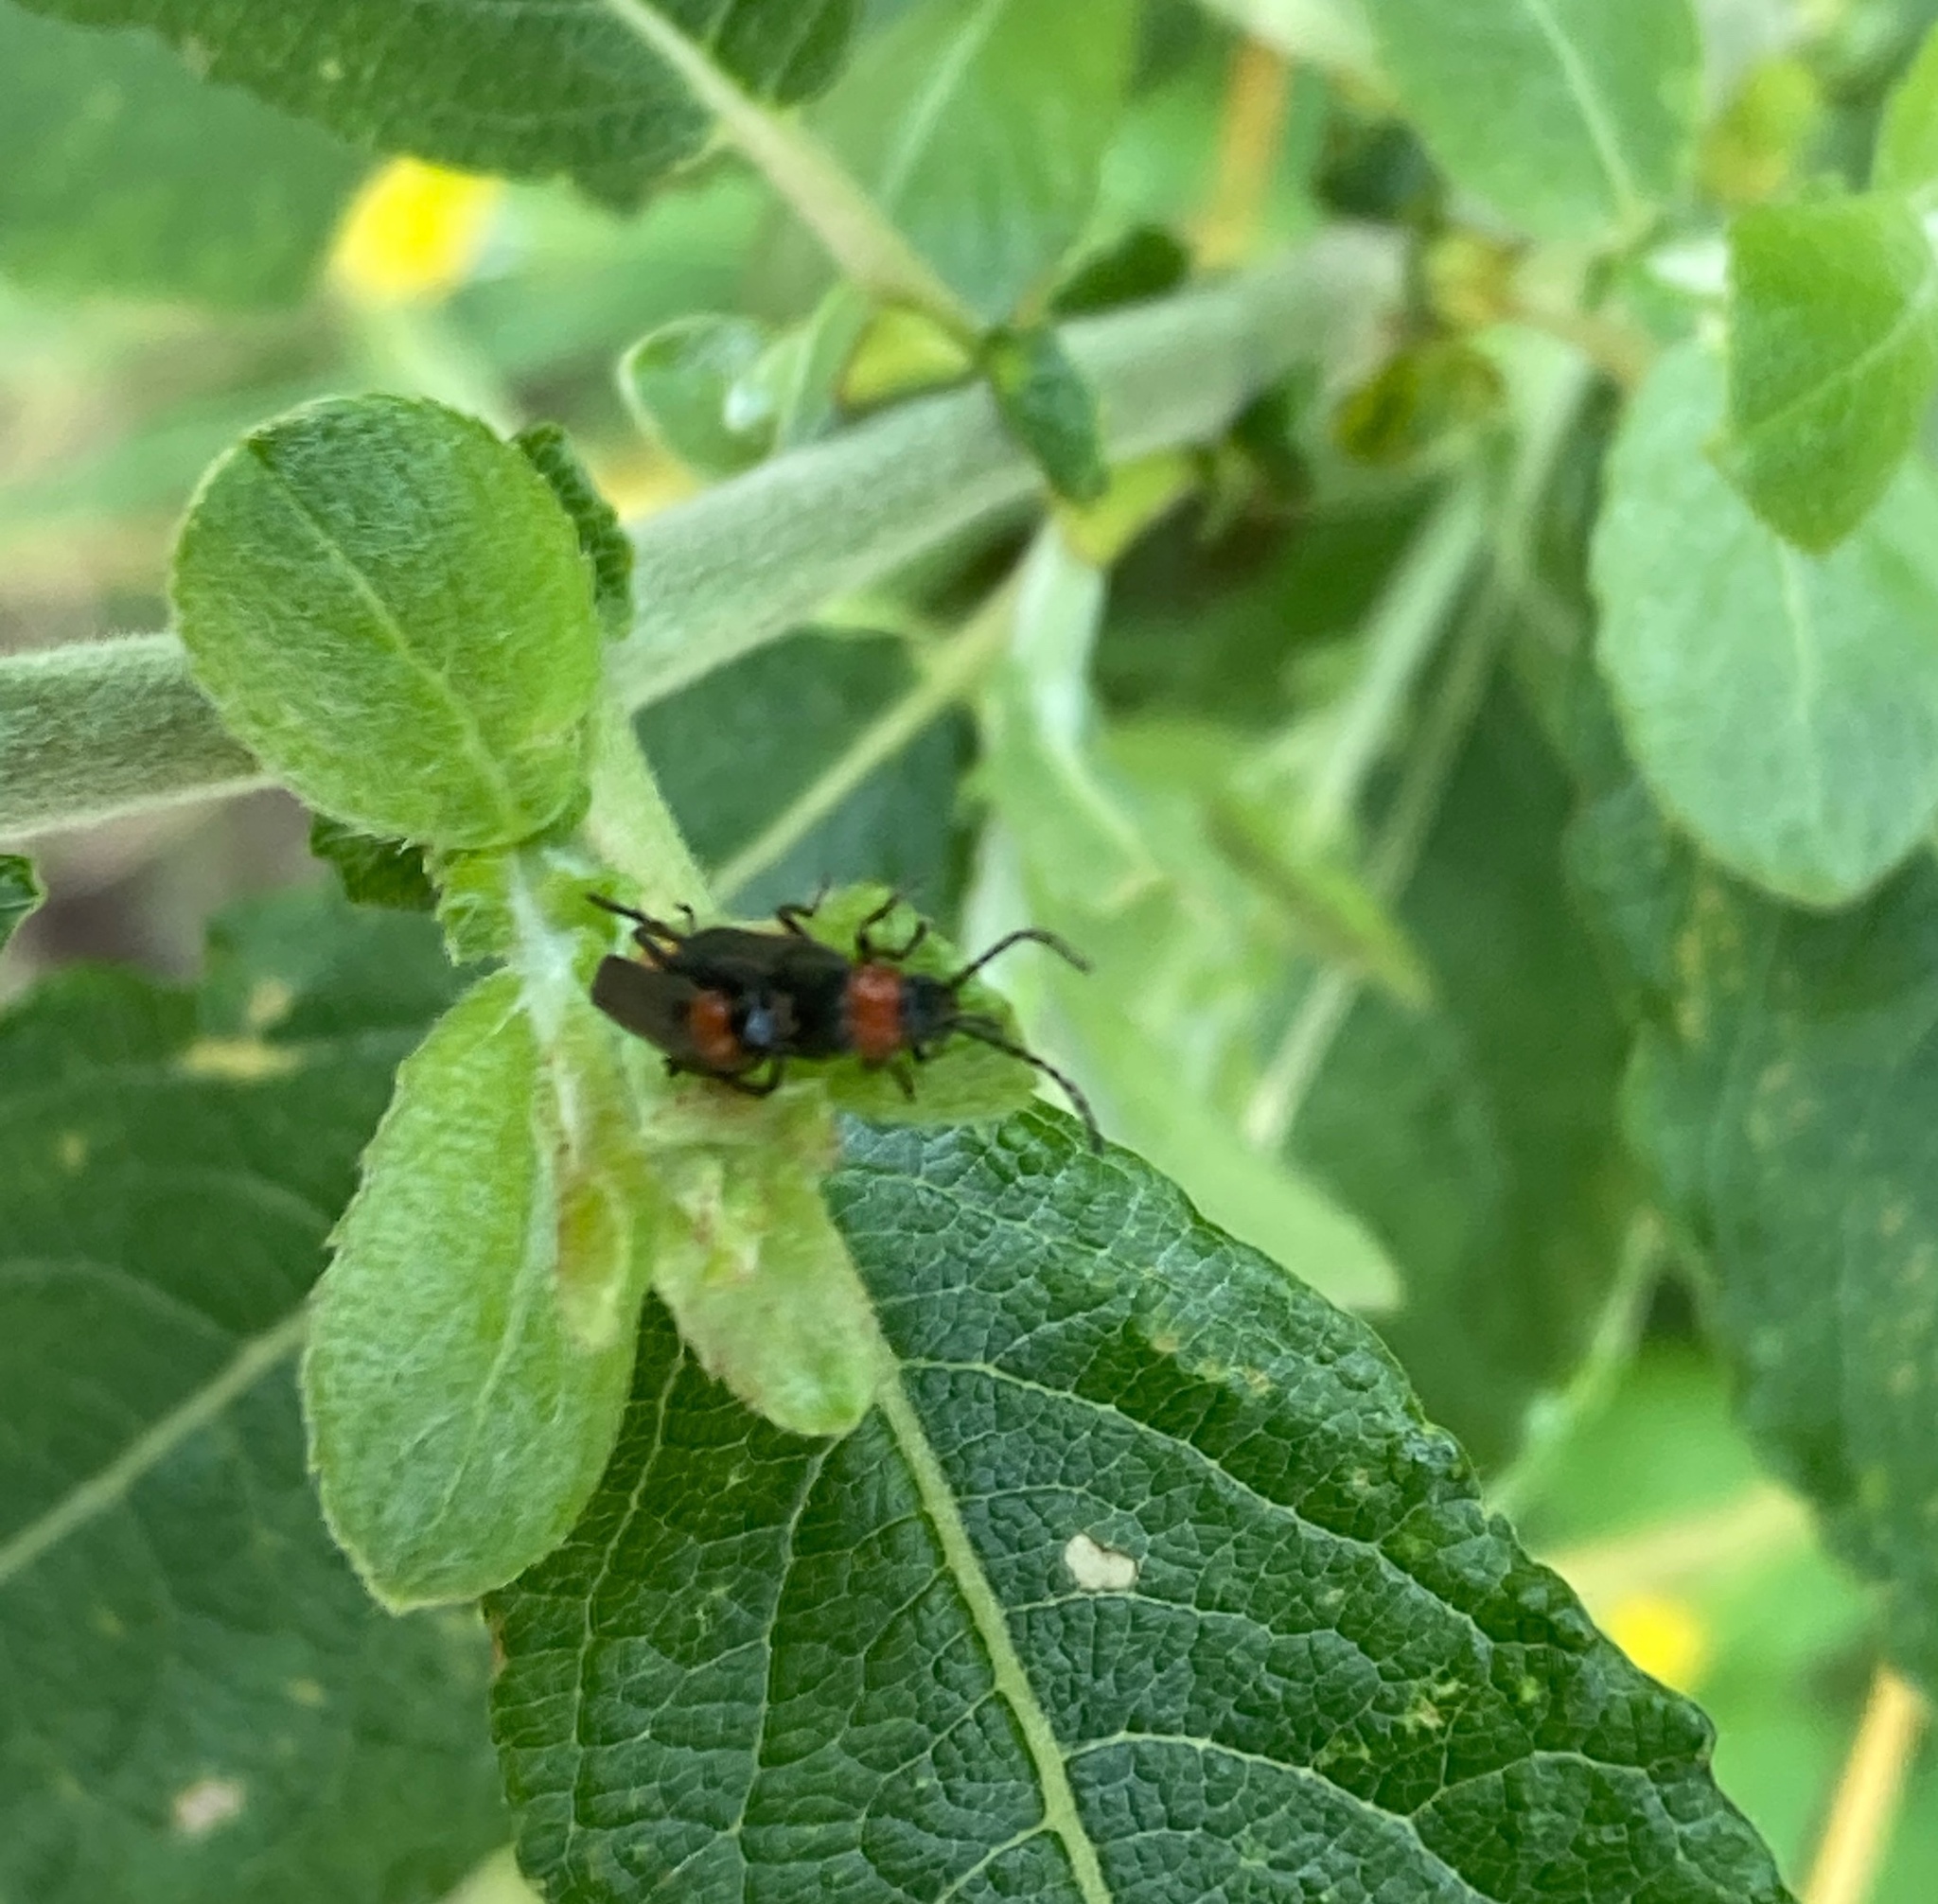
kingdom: Animalia
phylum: Arthropoda
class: Insecta
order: Coleoptera
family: Cantharidae
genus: Crudosilis
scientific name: Crudosilis ruficollis
